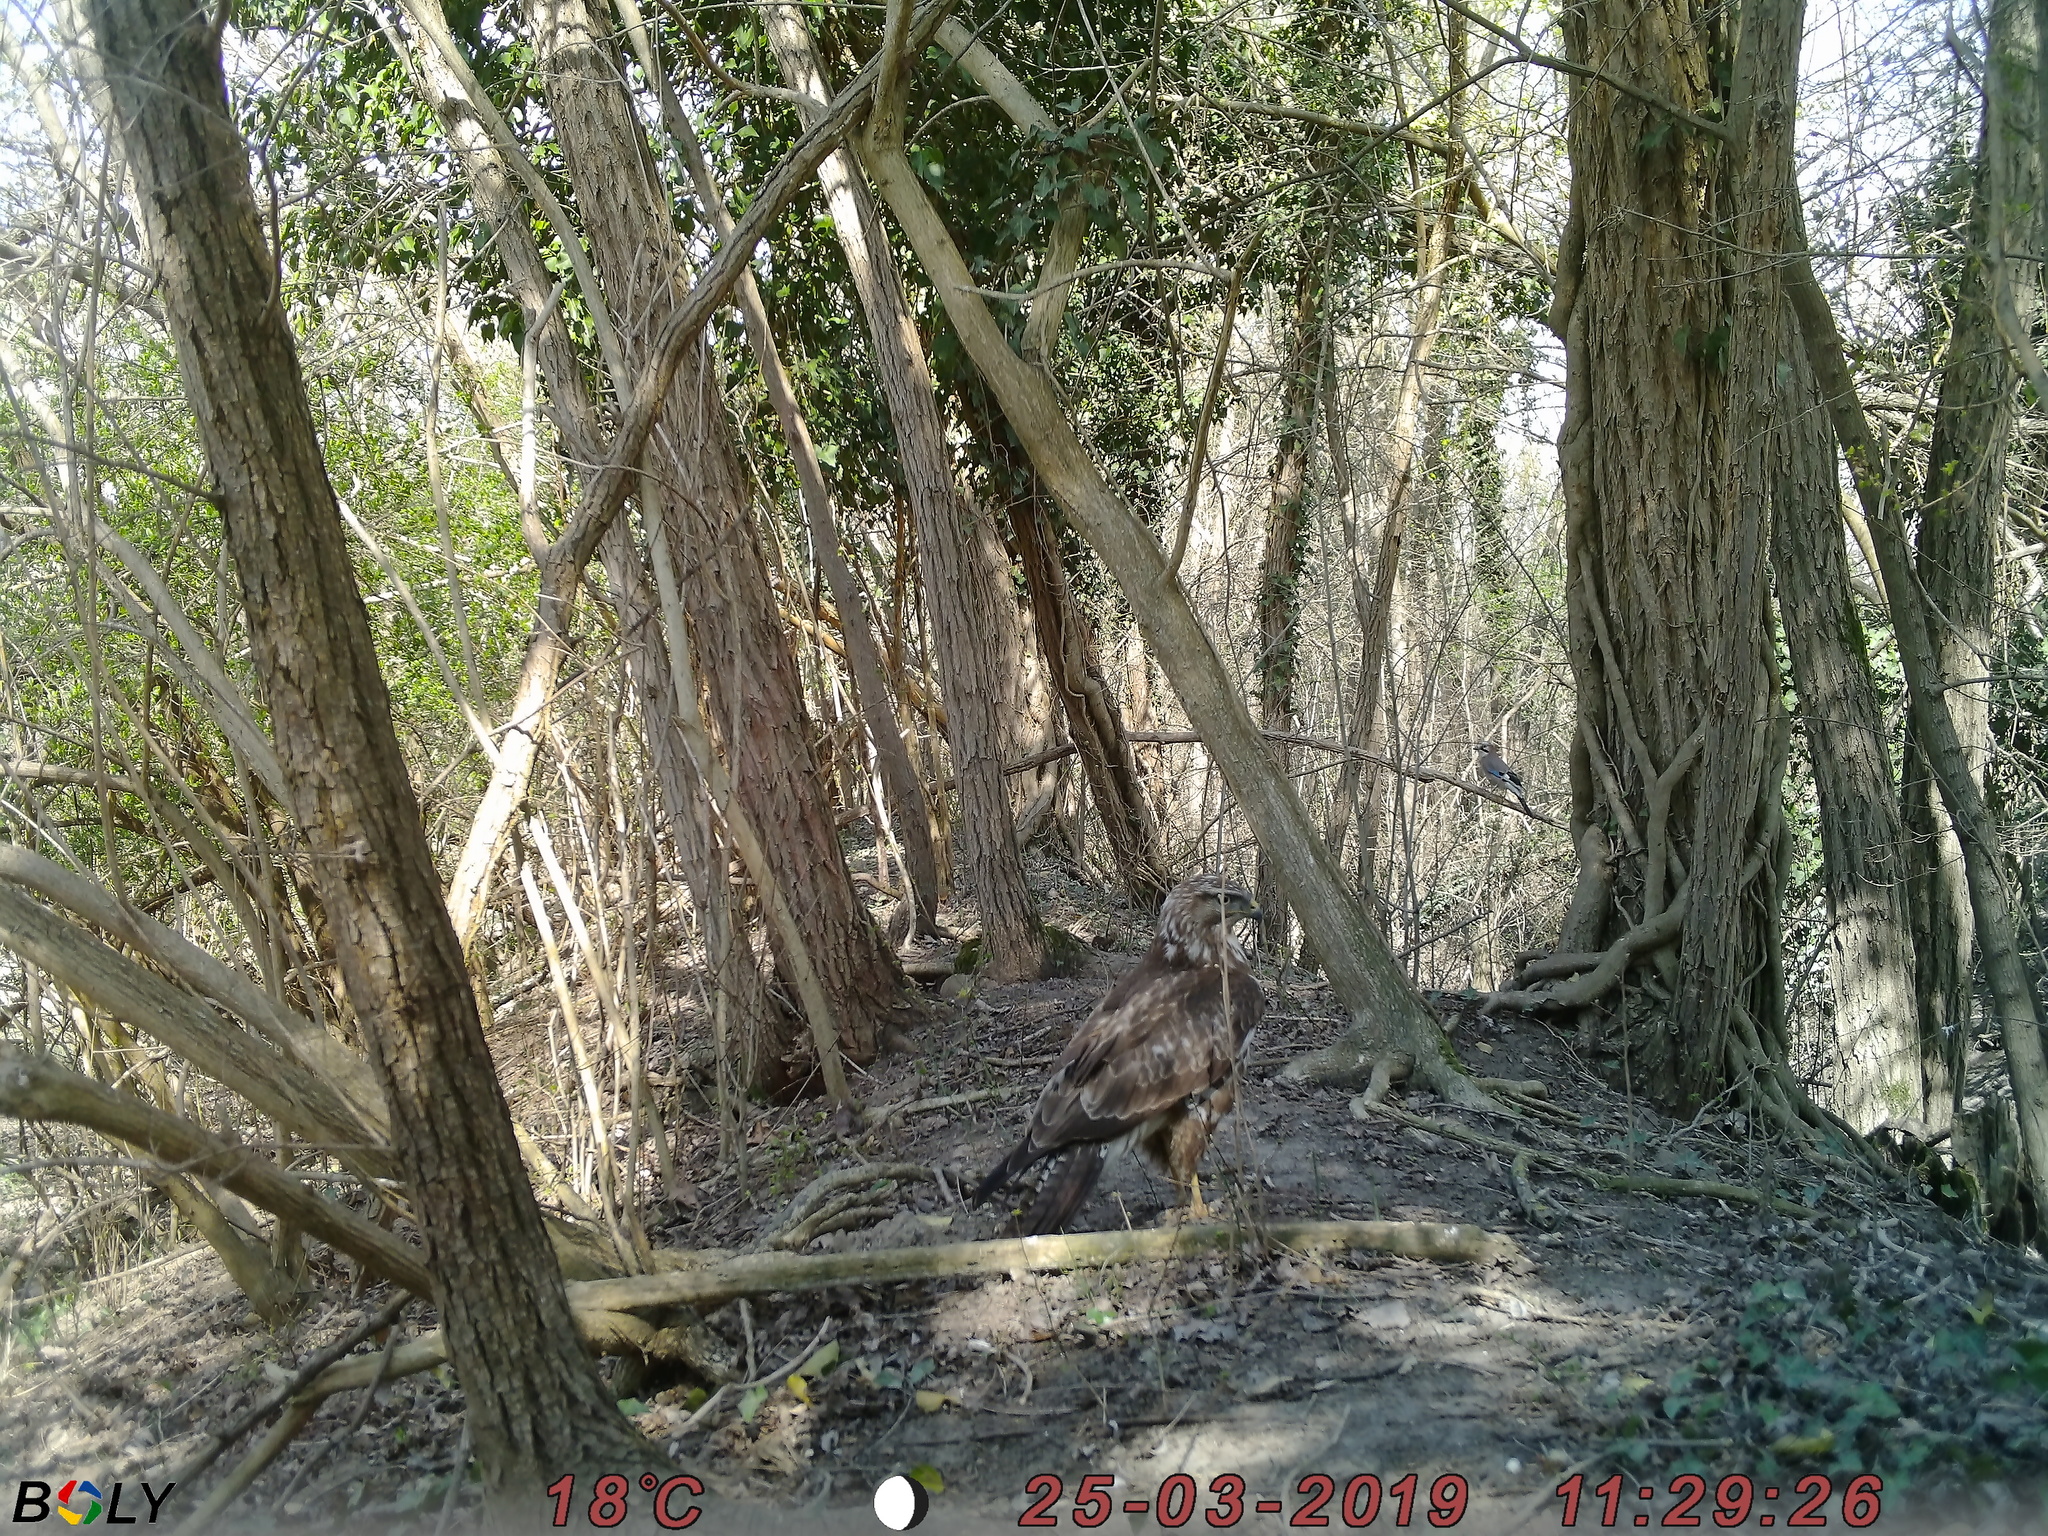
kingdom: Animalia
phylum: Chordata
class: Aves
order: Accipitriformes
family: Accipitridae
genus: Buteo
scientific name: Buteo buteo
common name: Common buzzard
